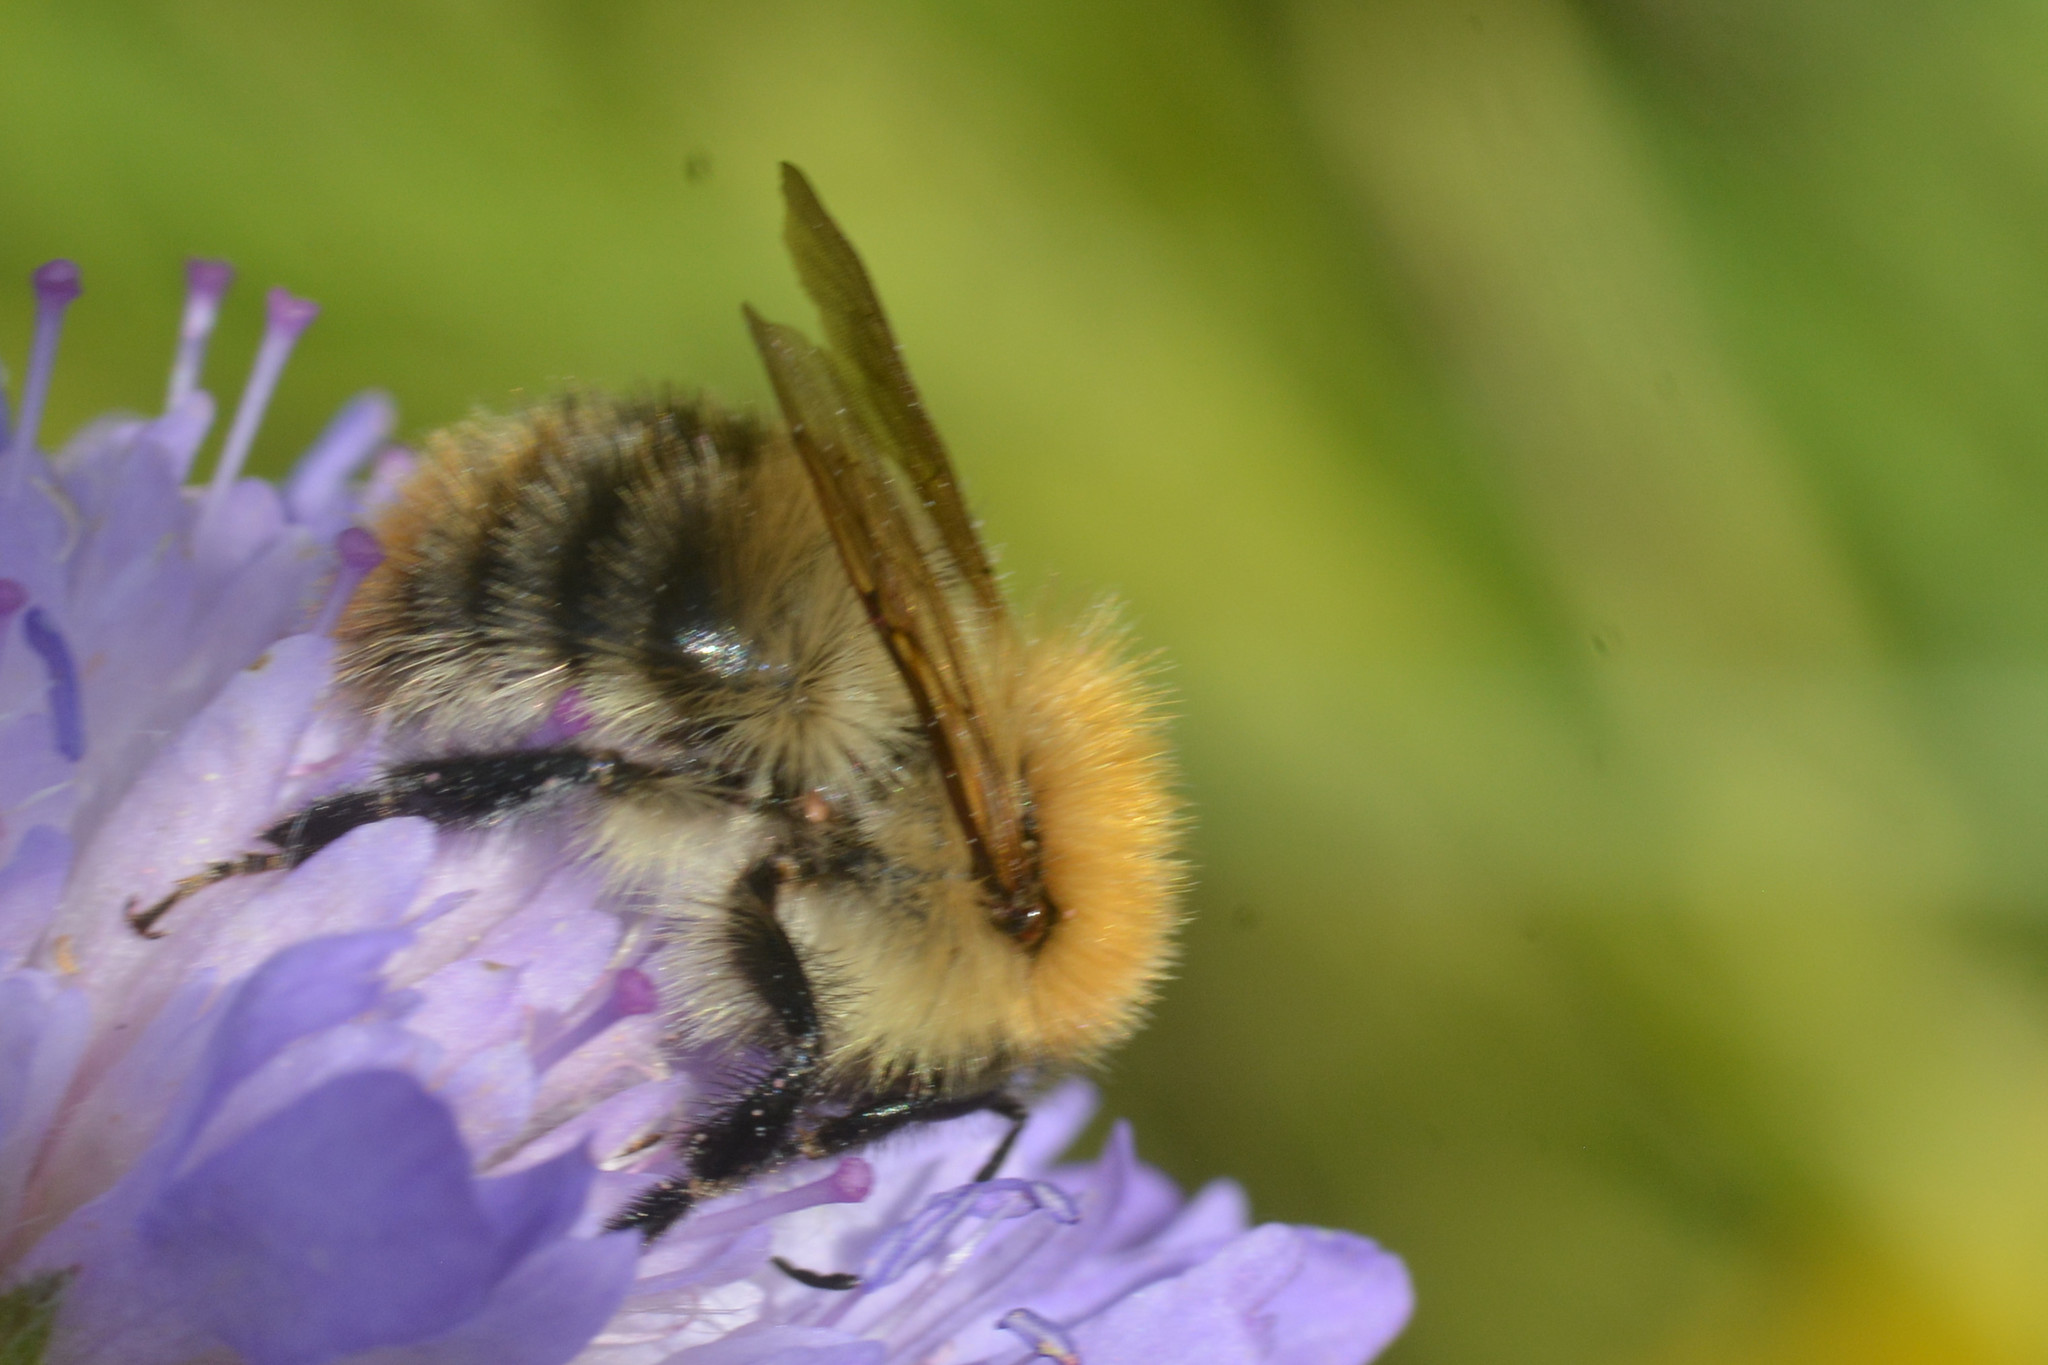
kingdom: Animalia
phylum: Arthropoda
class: Insecta
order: Hymenoptera
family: Apidae
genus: Bombus
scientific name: Bombus pascuorum
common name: Common carder bee
